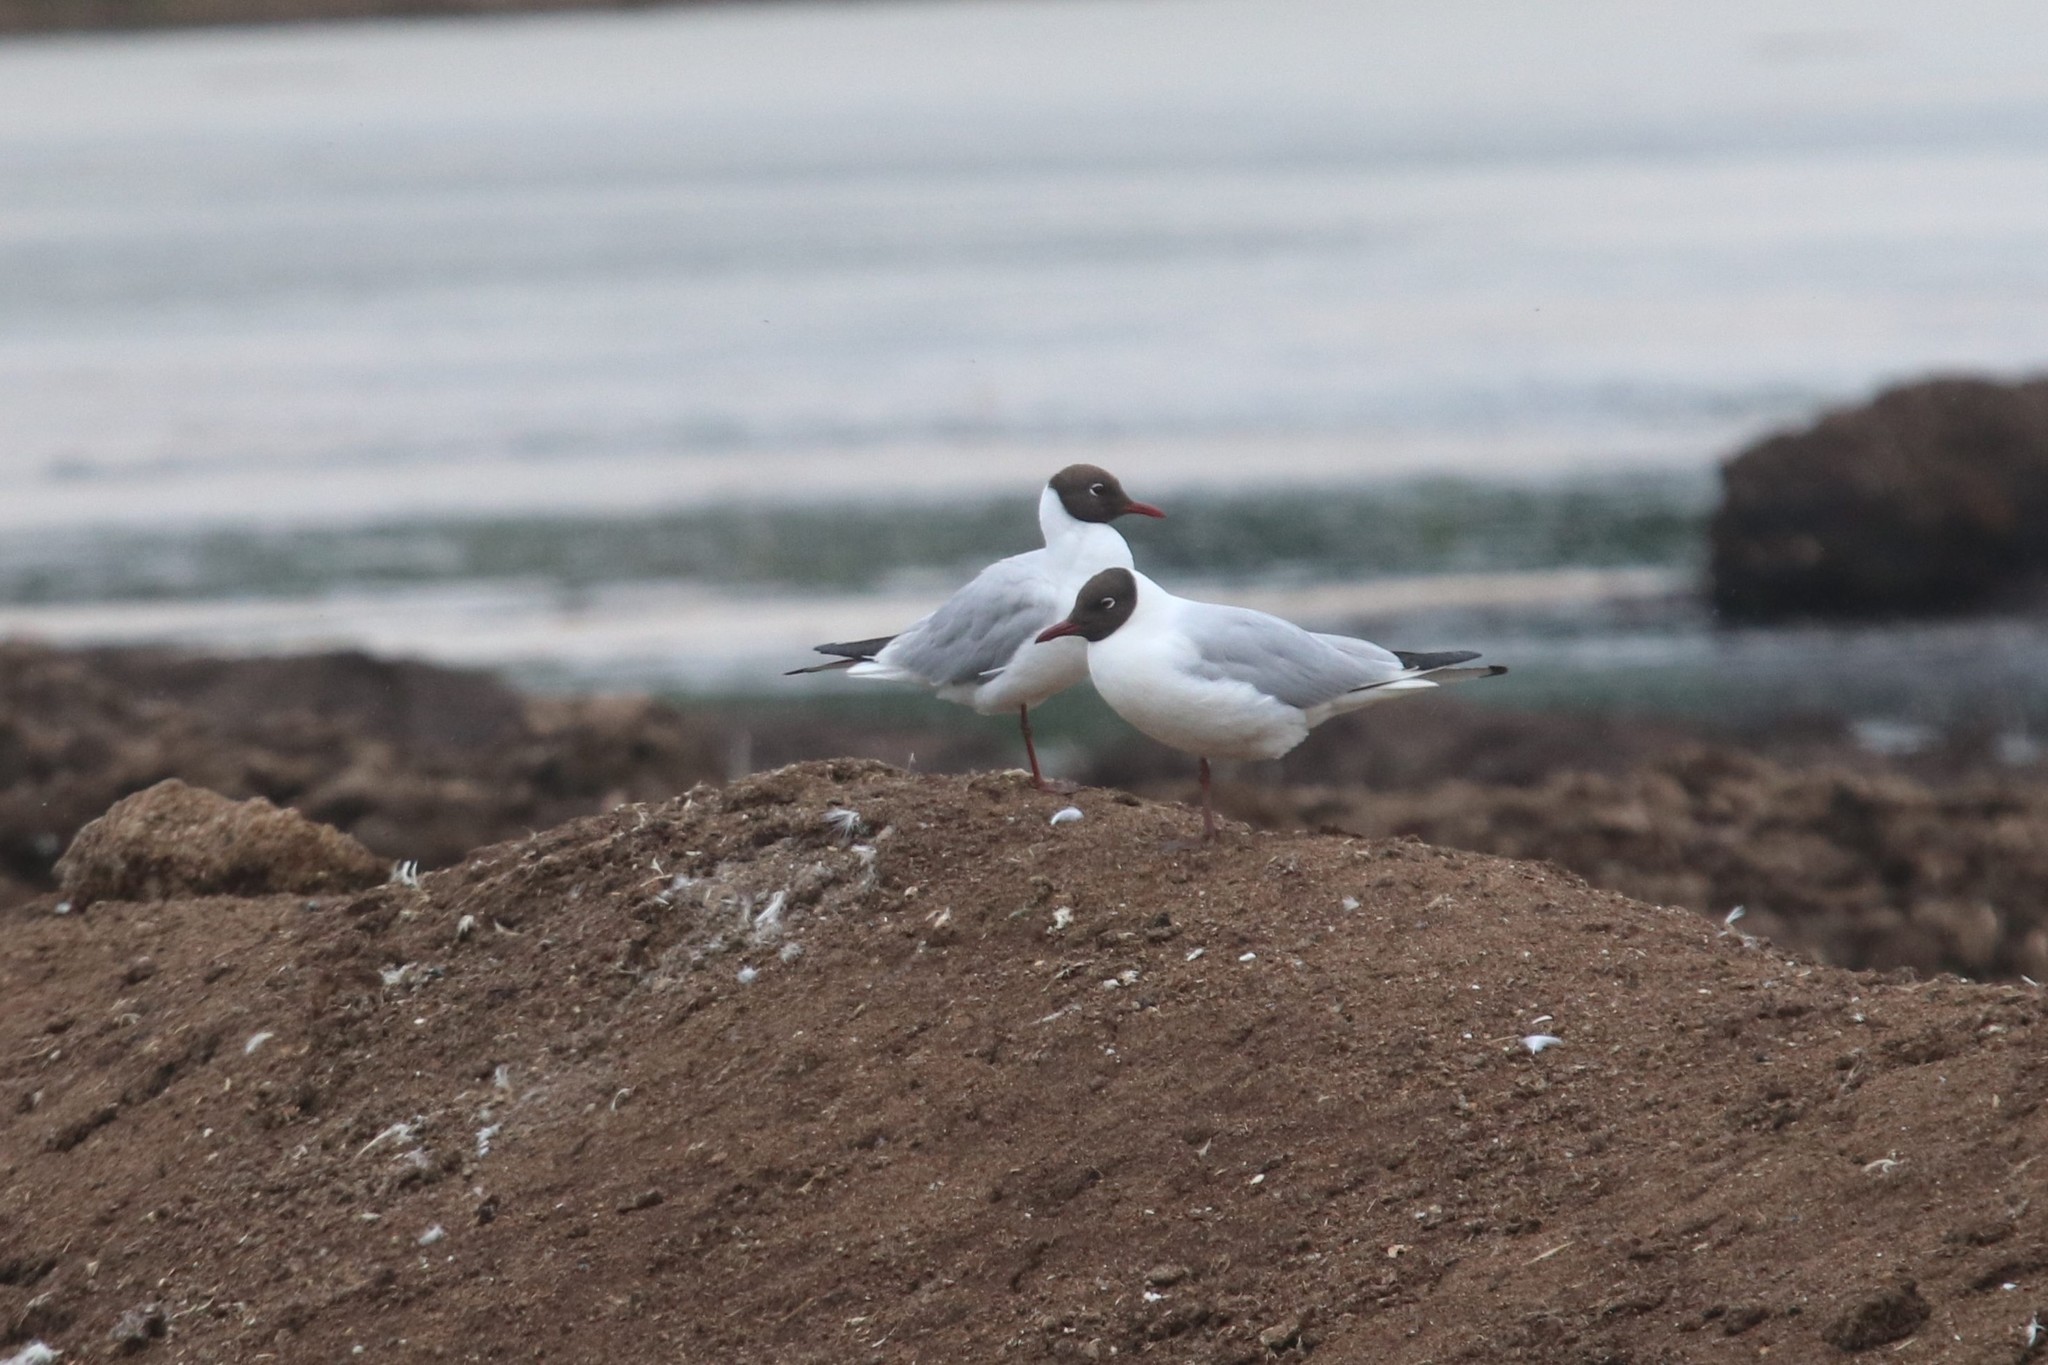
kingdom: Animalia
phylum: Chordata
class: Aves
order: Charadriiformes
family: Laridae
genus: Chroicocephalus
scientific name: Chroicocephalus ridibundus
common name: Black-headed gull
